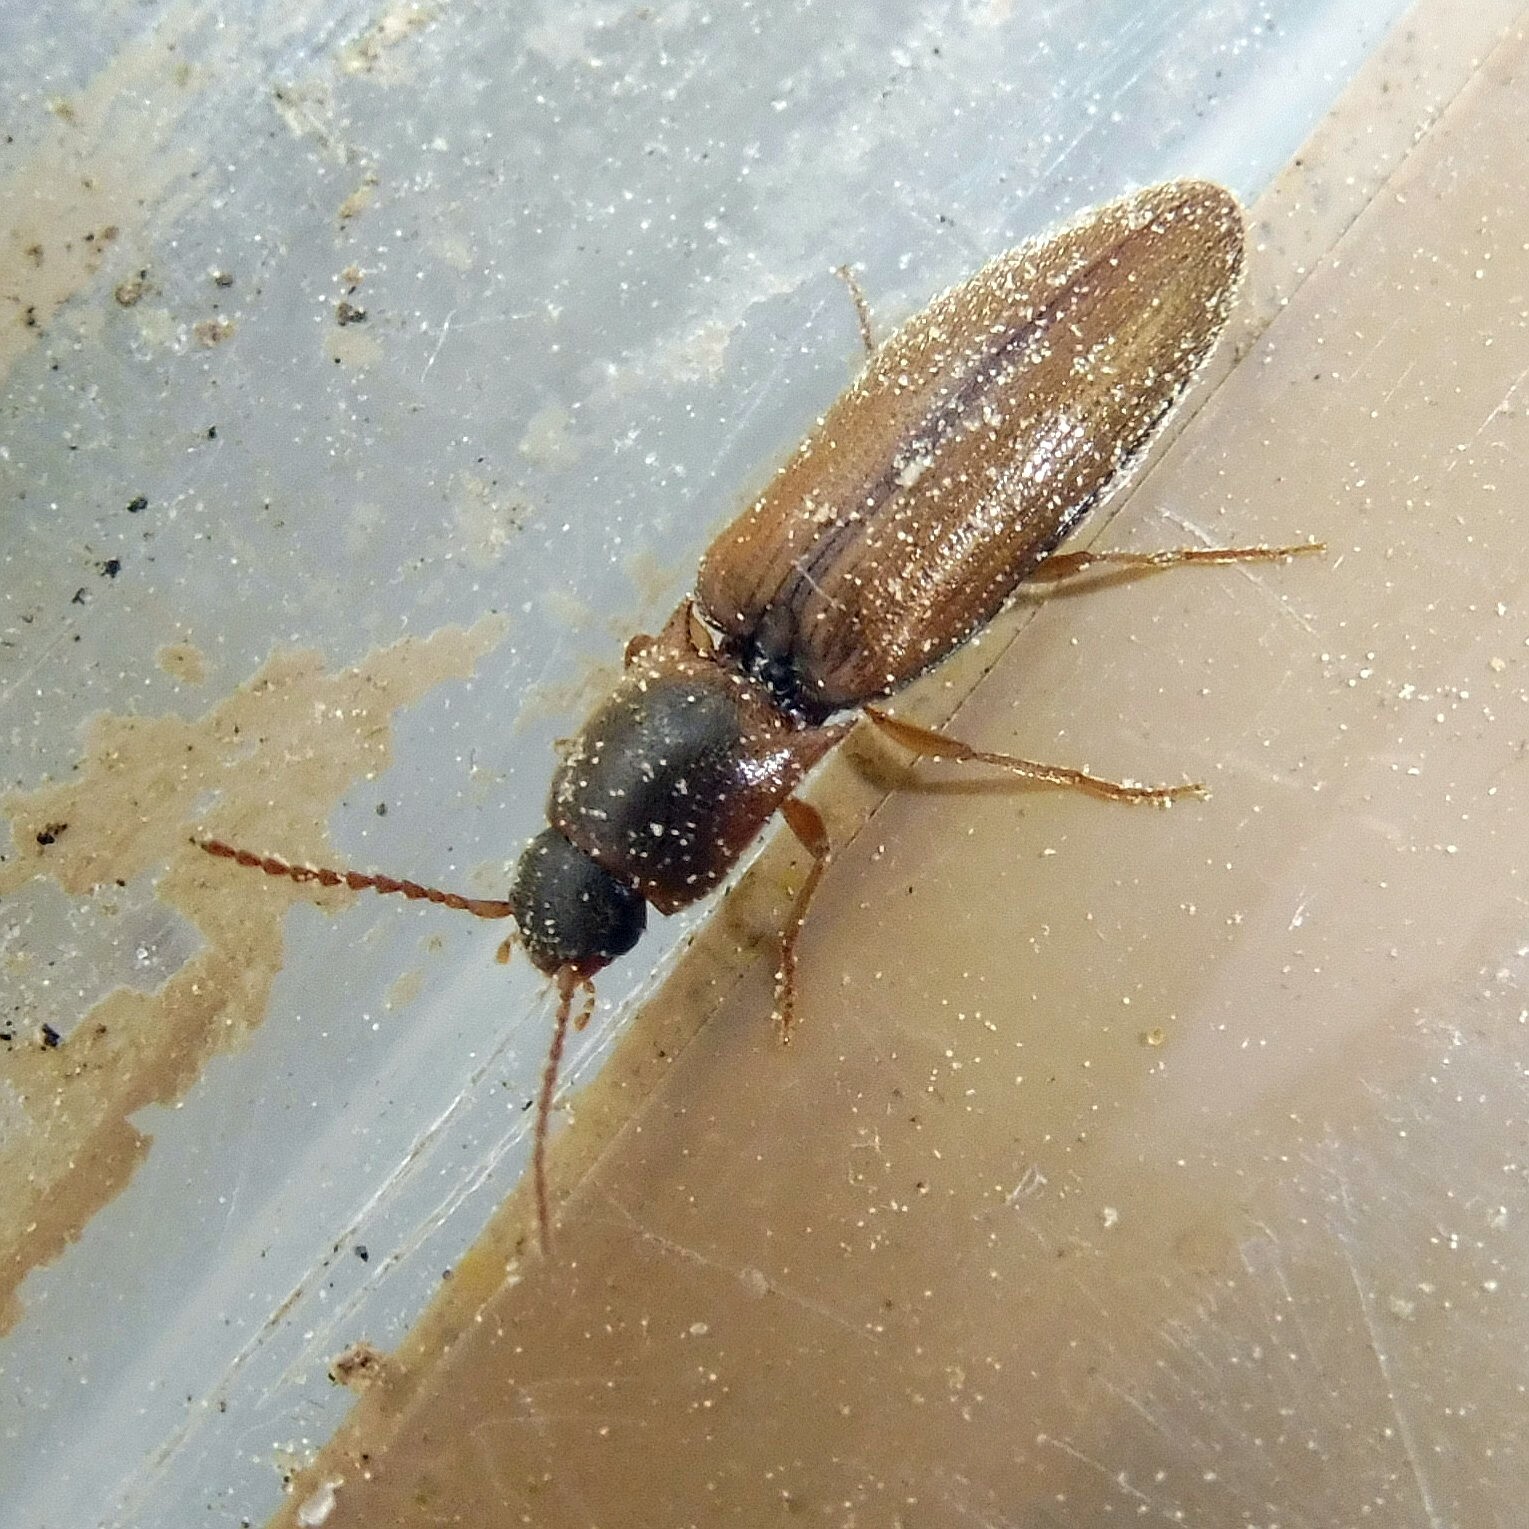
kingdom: Animalia
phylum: Arthropoda
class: Insecta
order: Coleoptera
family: Elateridae
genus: Agriotes
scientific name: Agriotes acuminatus
